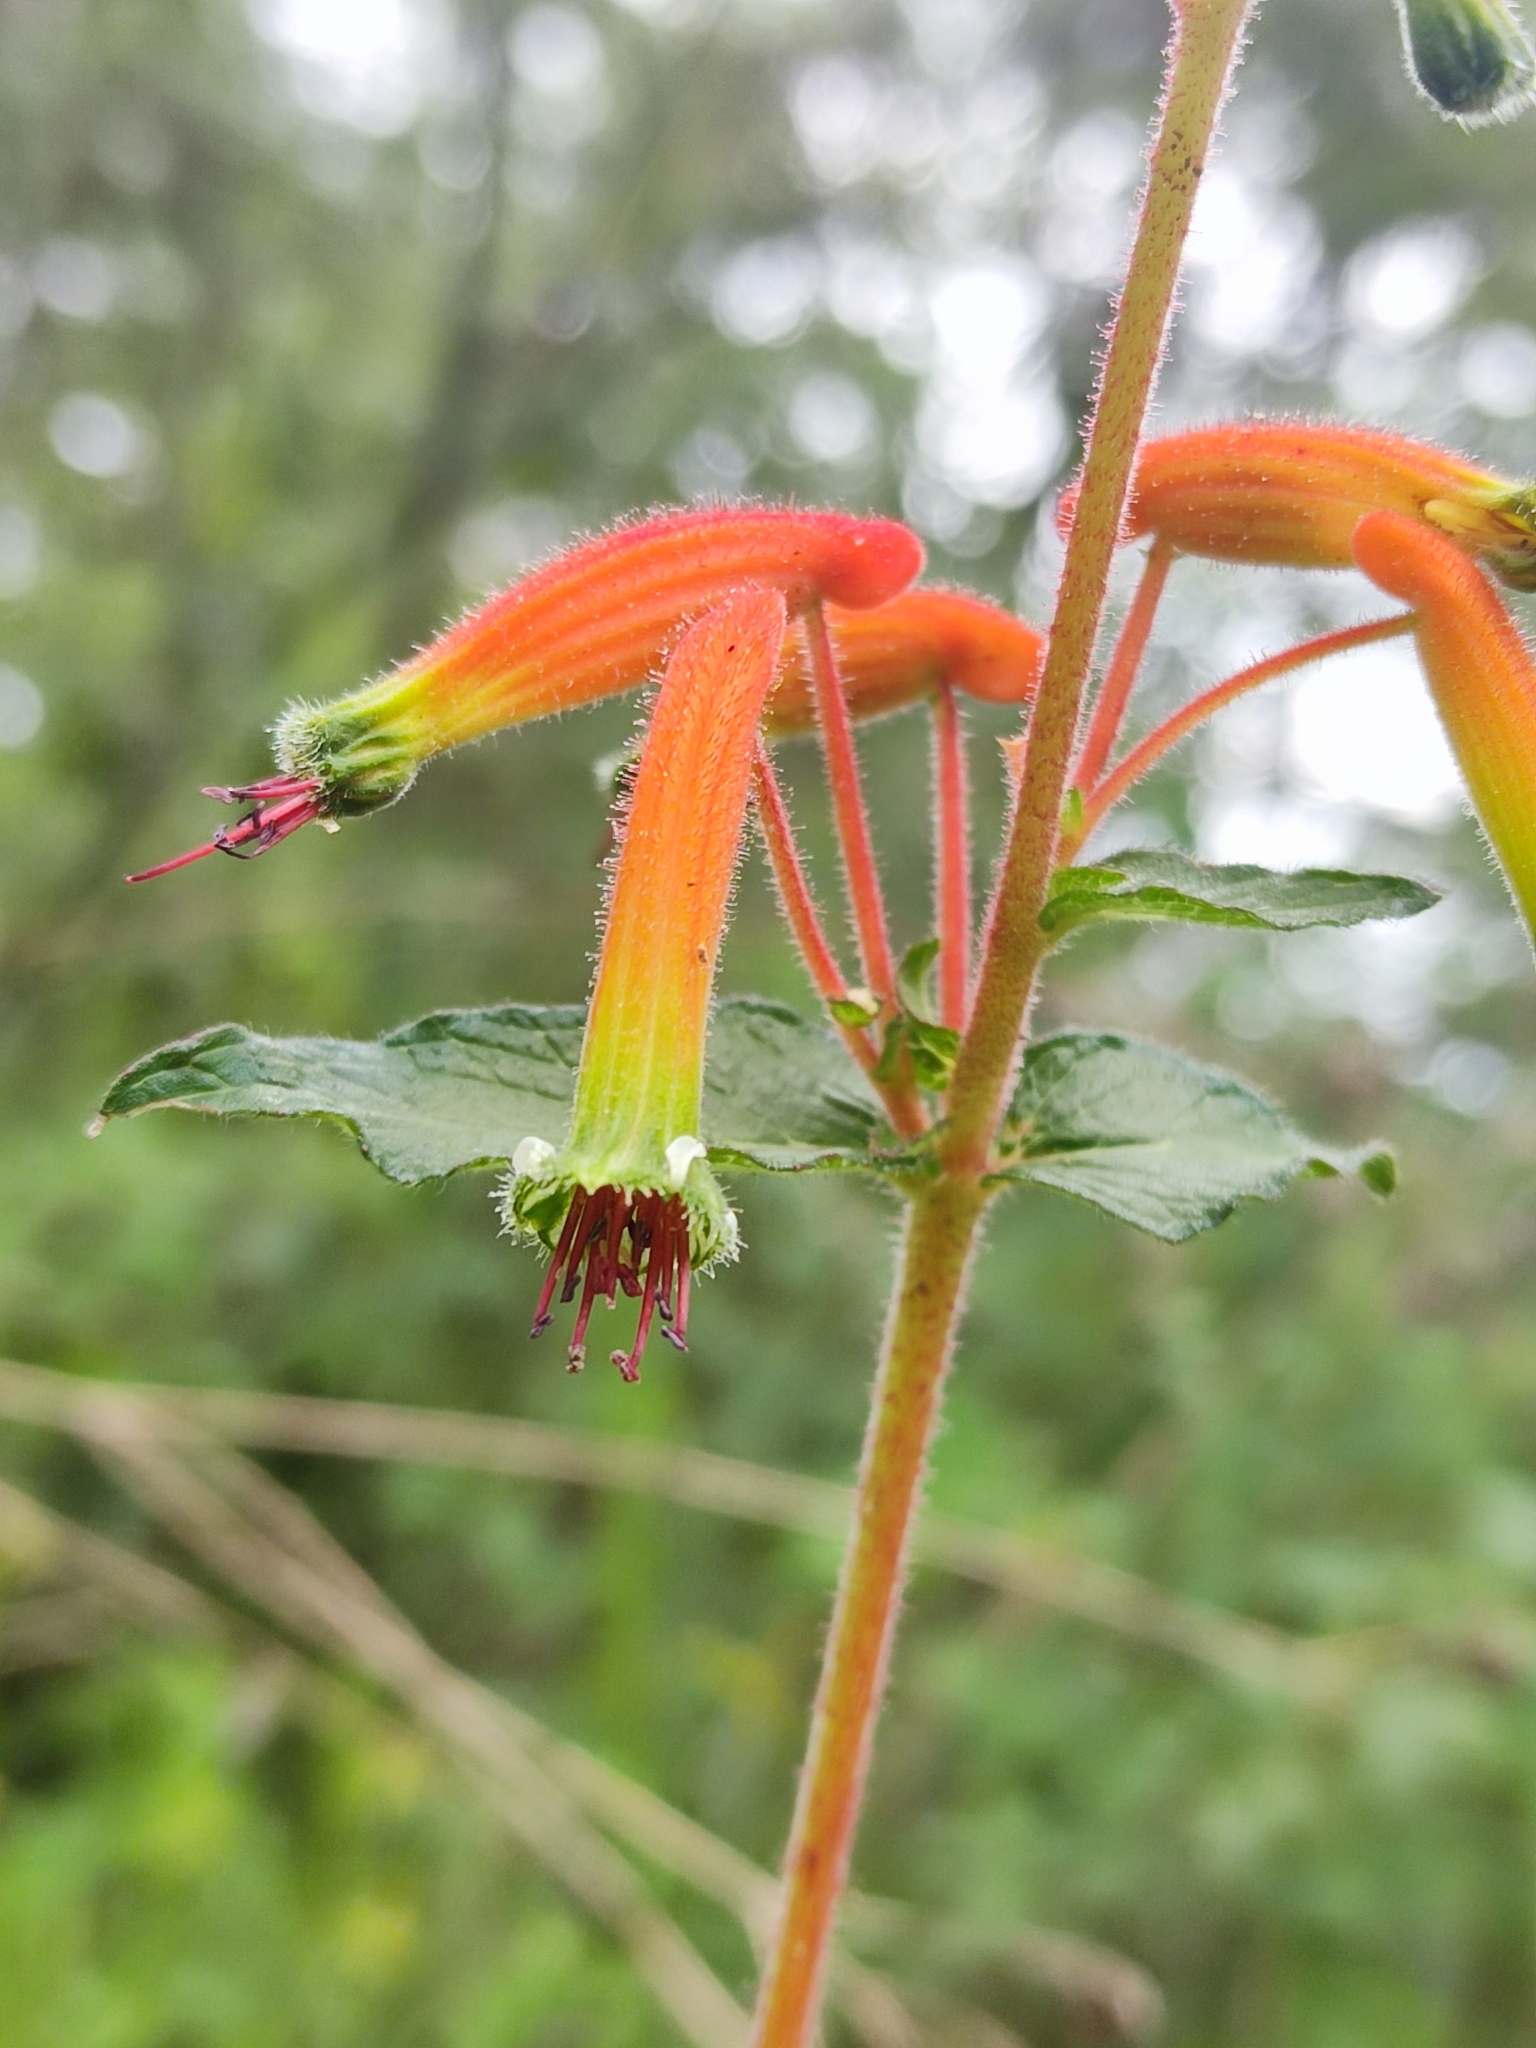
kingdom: Plantae
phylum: Tracheophyta
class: Magnoliopsida
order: Myrtales
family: Lythraceae
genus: Cuphea
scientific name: Cuphea jorullensis
